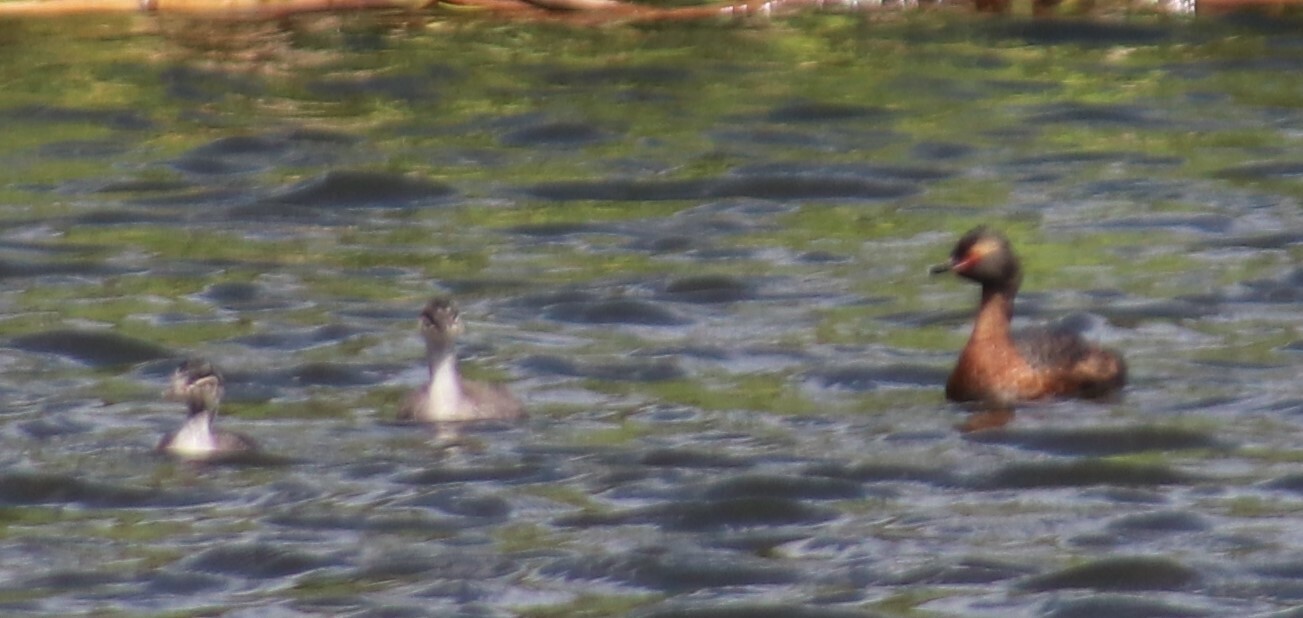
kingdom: Animalia
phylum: Chordata
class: Aves
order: Podicipediformes
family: Podicipedidae
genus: Podiceps
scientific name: Podiceps auritus
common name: Horned grebe
